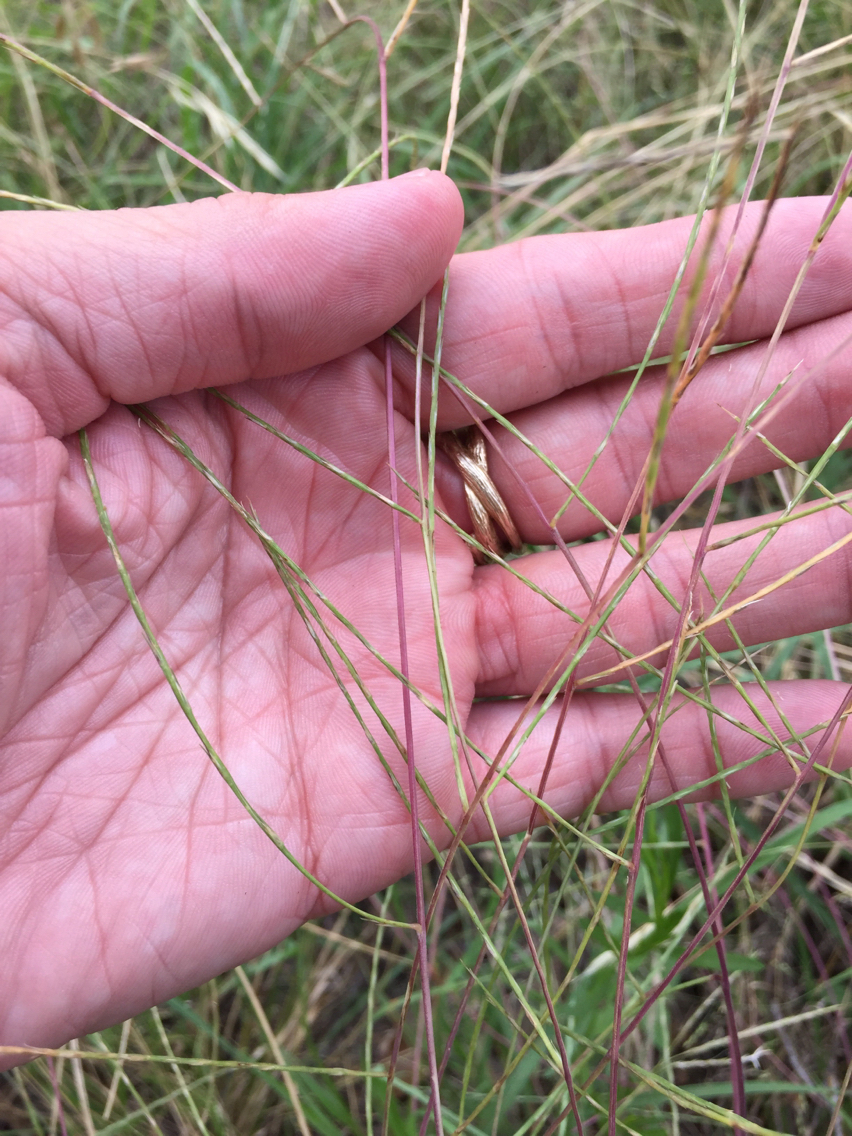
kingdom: Plantae
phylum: Tracheophyta
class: Liliopsida
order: Poales
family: Poaceae
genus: Muhlenbergia
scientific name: Muhlenbergia paniculata
